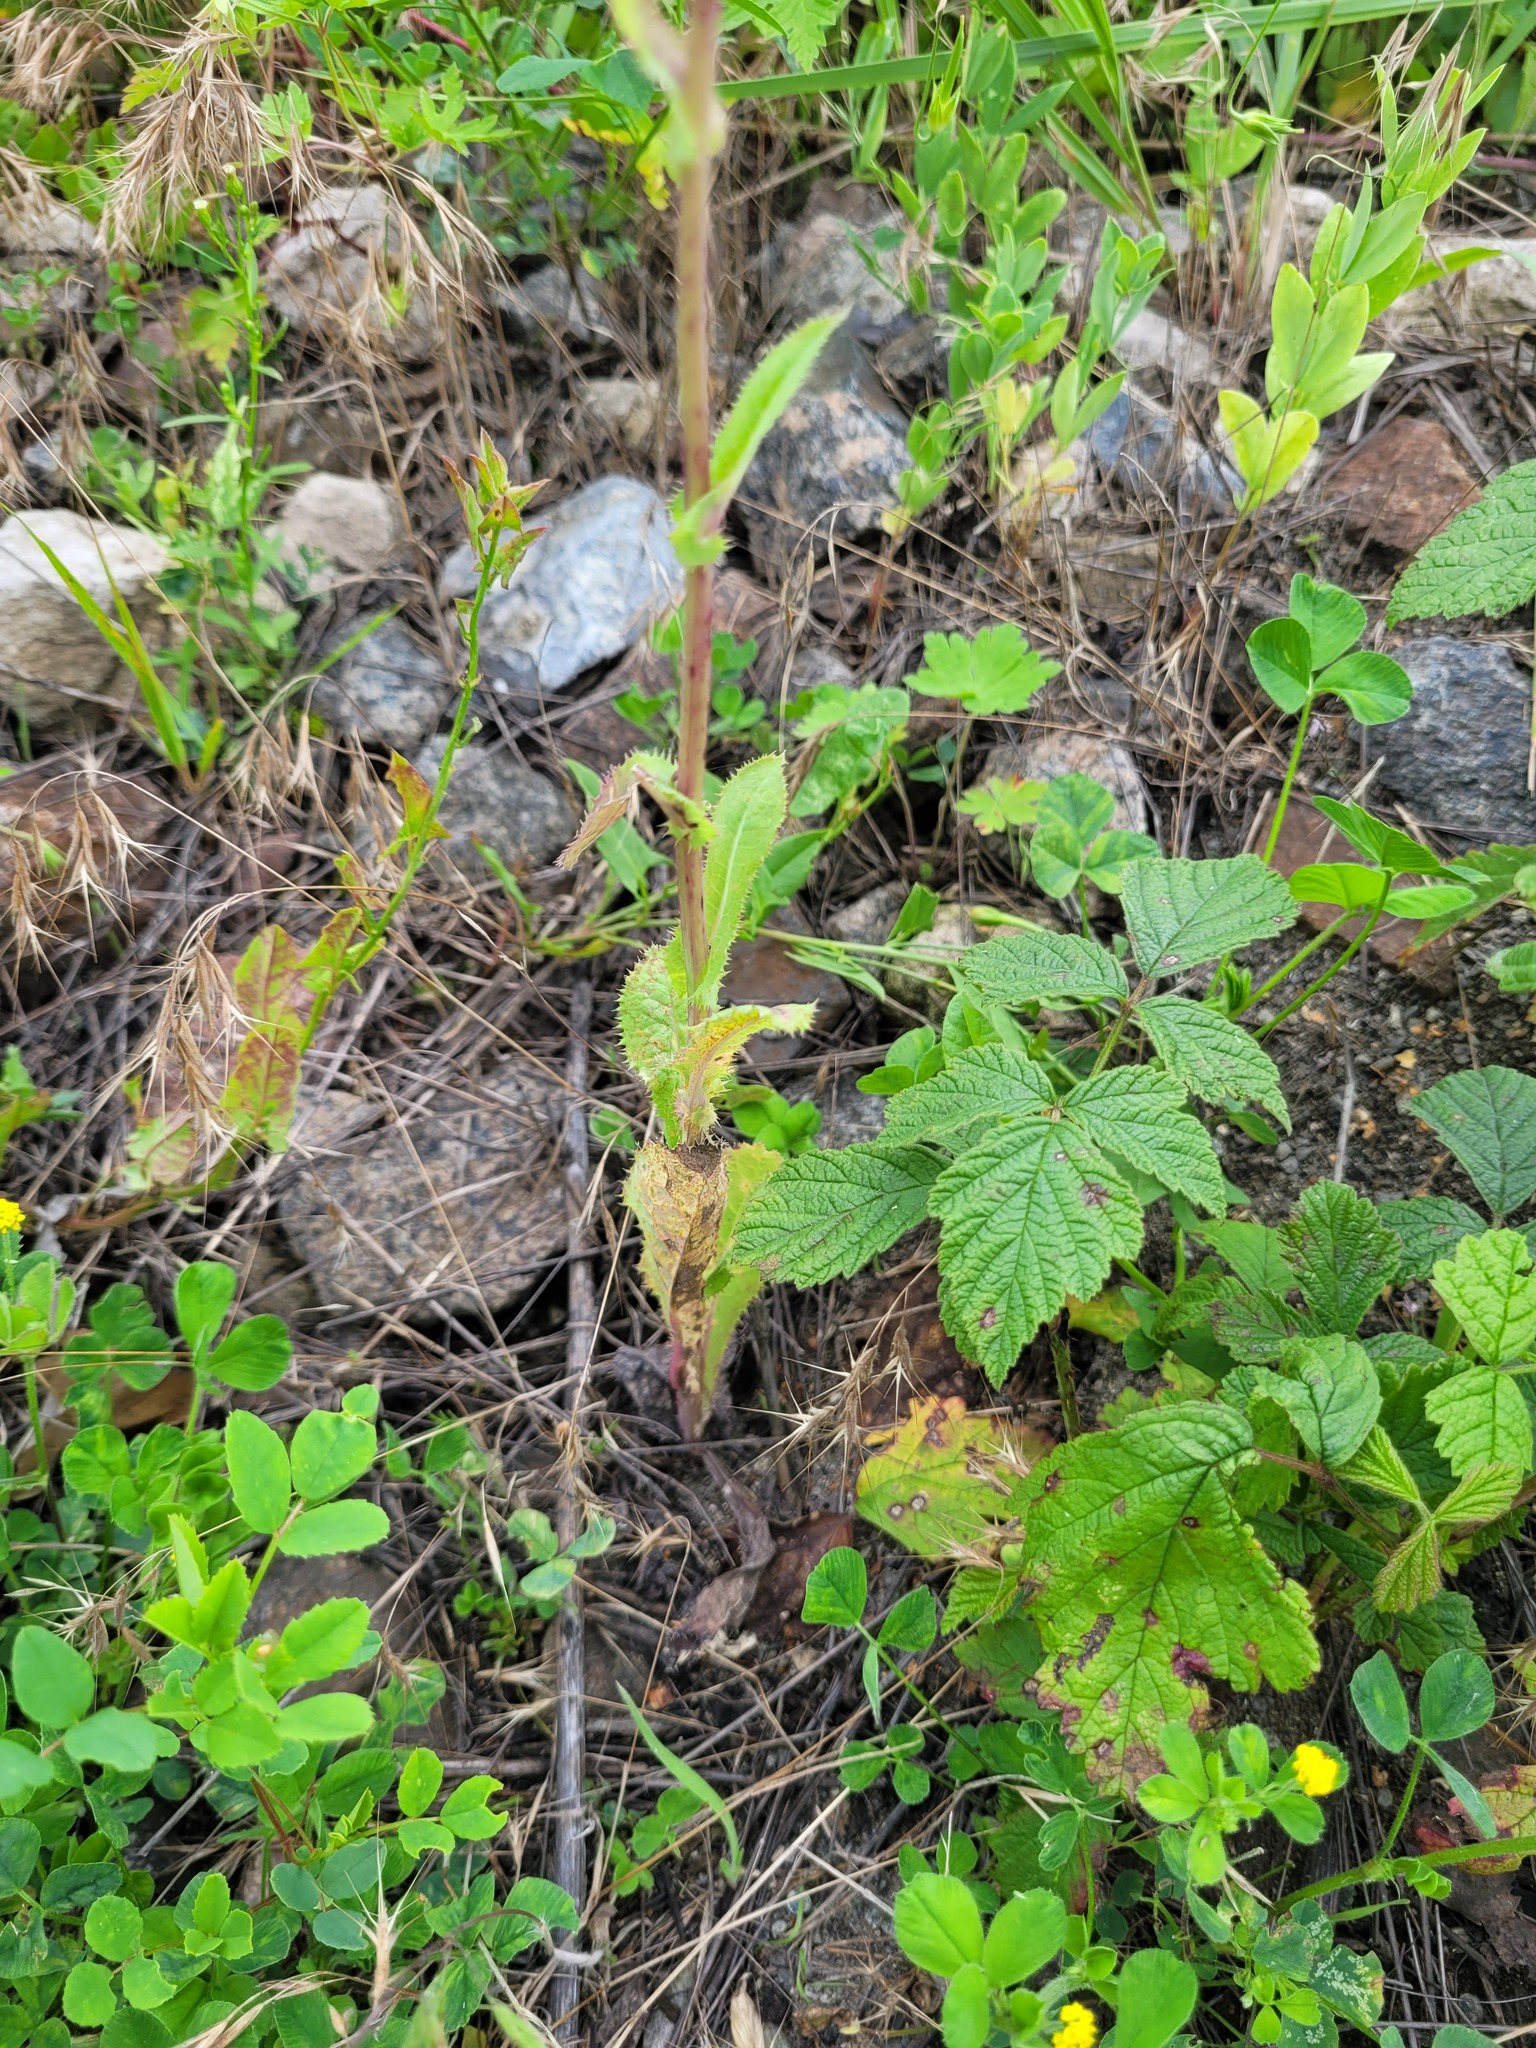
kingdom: Plantae
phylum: Tracheophyta
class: Magnoliopsida
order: Asterales
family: Asteraceae
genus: Sonchus
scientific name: Sonchus asper
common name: Prickly sow-thistle
